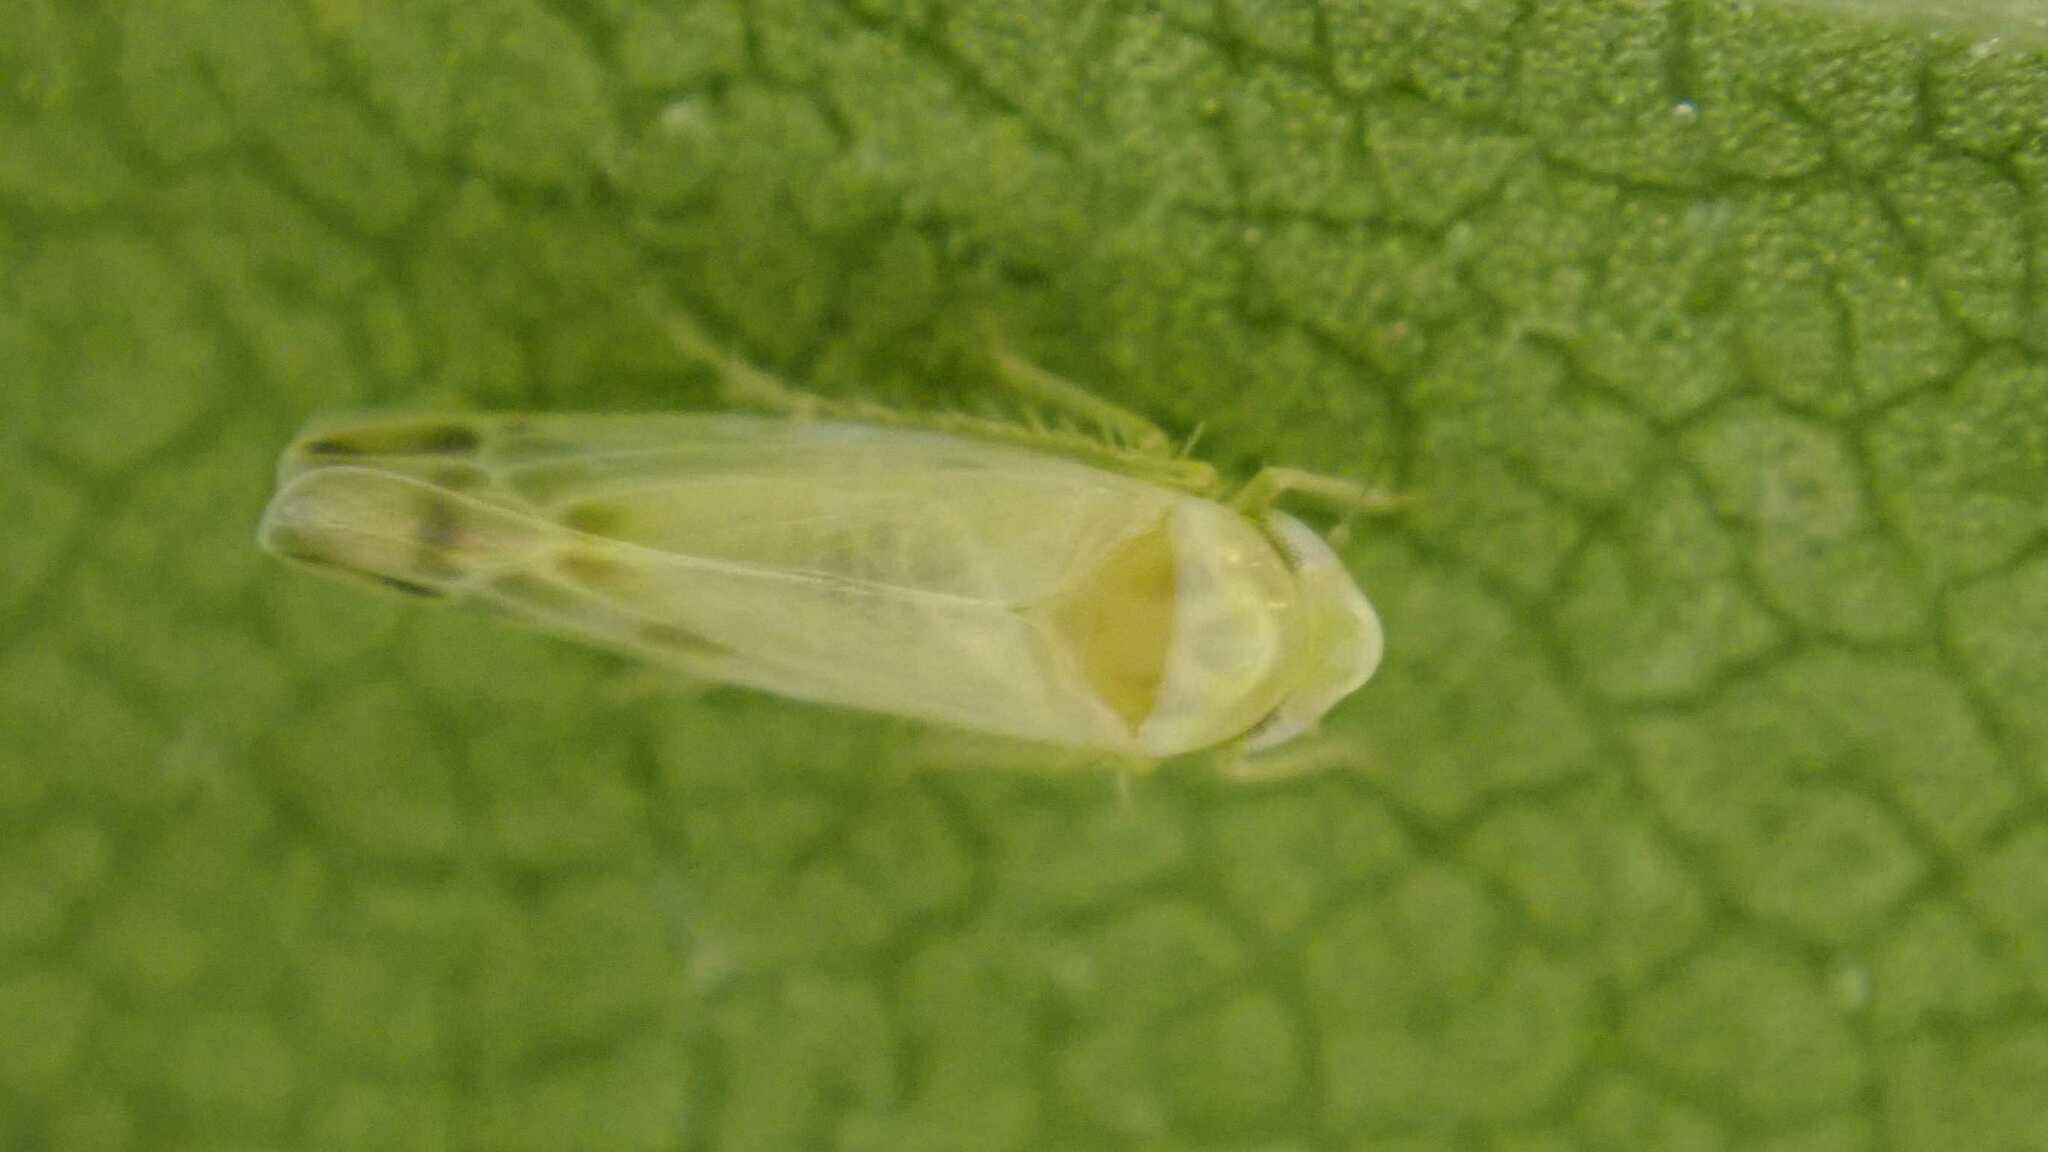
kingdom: Animalia
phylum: Arthropoda
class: Insecta
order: Hemiptera
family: Cicadellidae
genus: Tautoneura
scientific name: Tautoneura polymitusa
